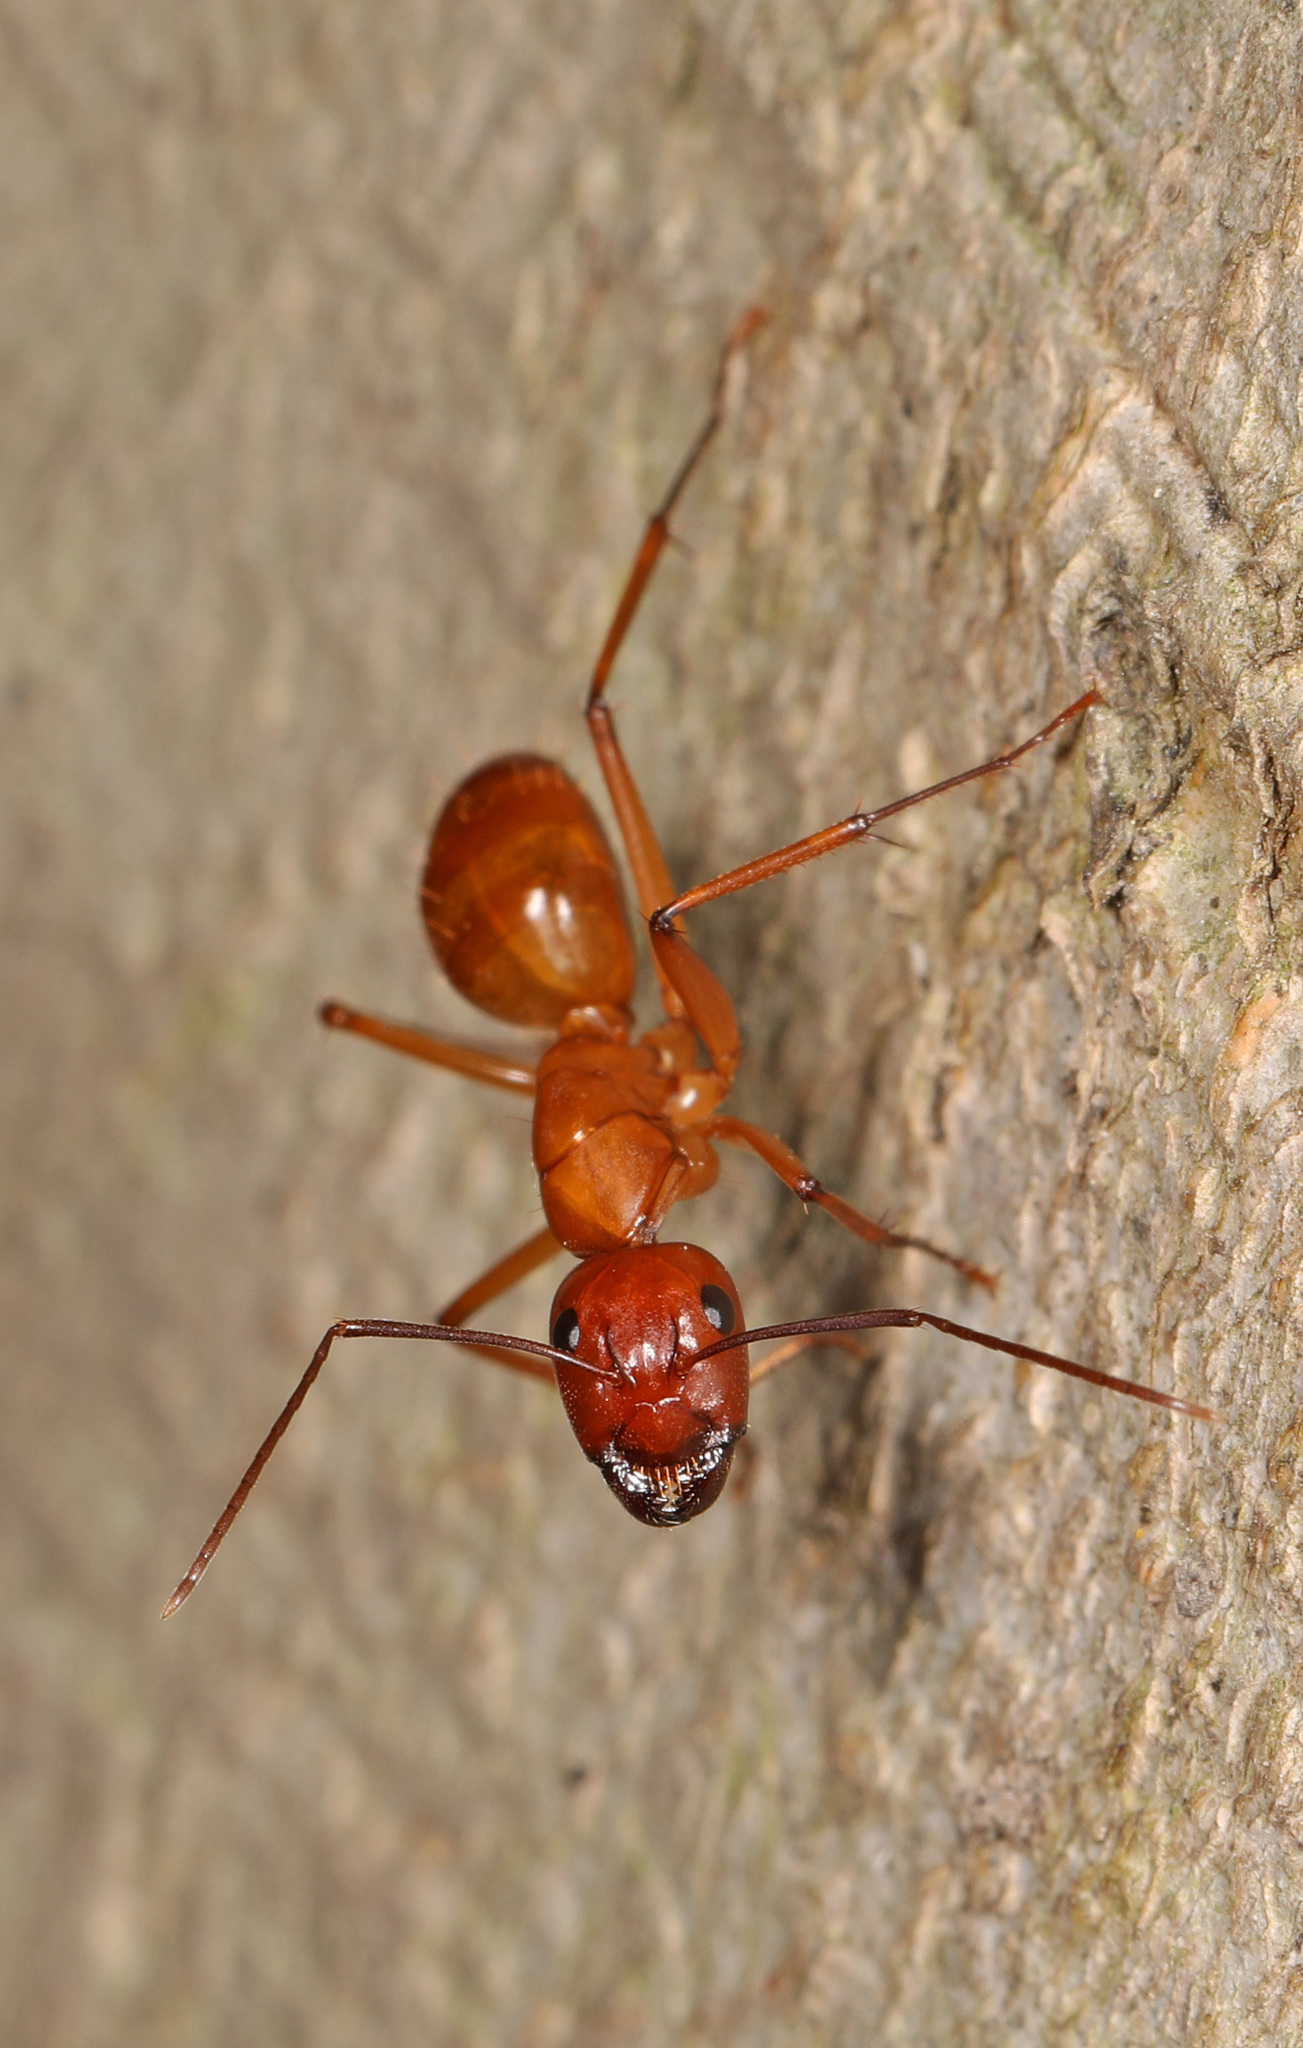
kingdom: Animalia
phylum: Arthropoda
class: Insecta
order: Hymenoptera
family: Formicidae
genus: Camponotus
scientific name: Camponotus castaneus
